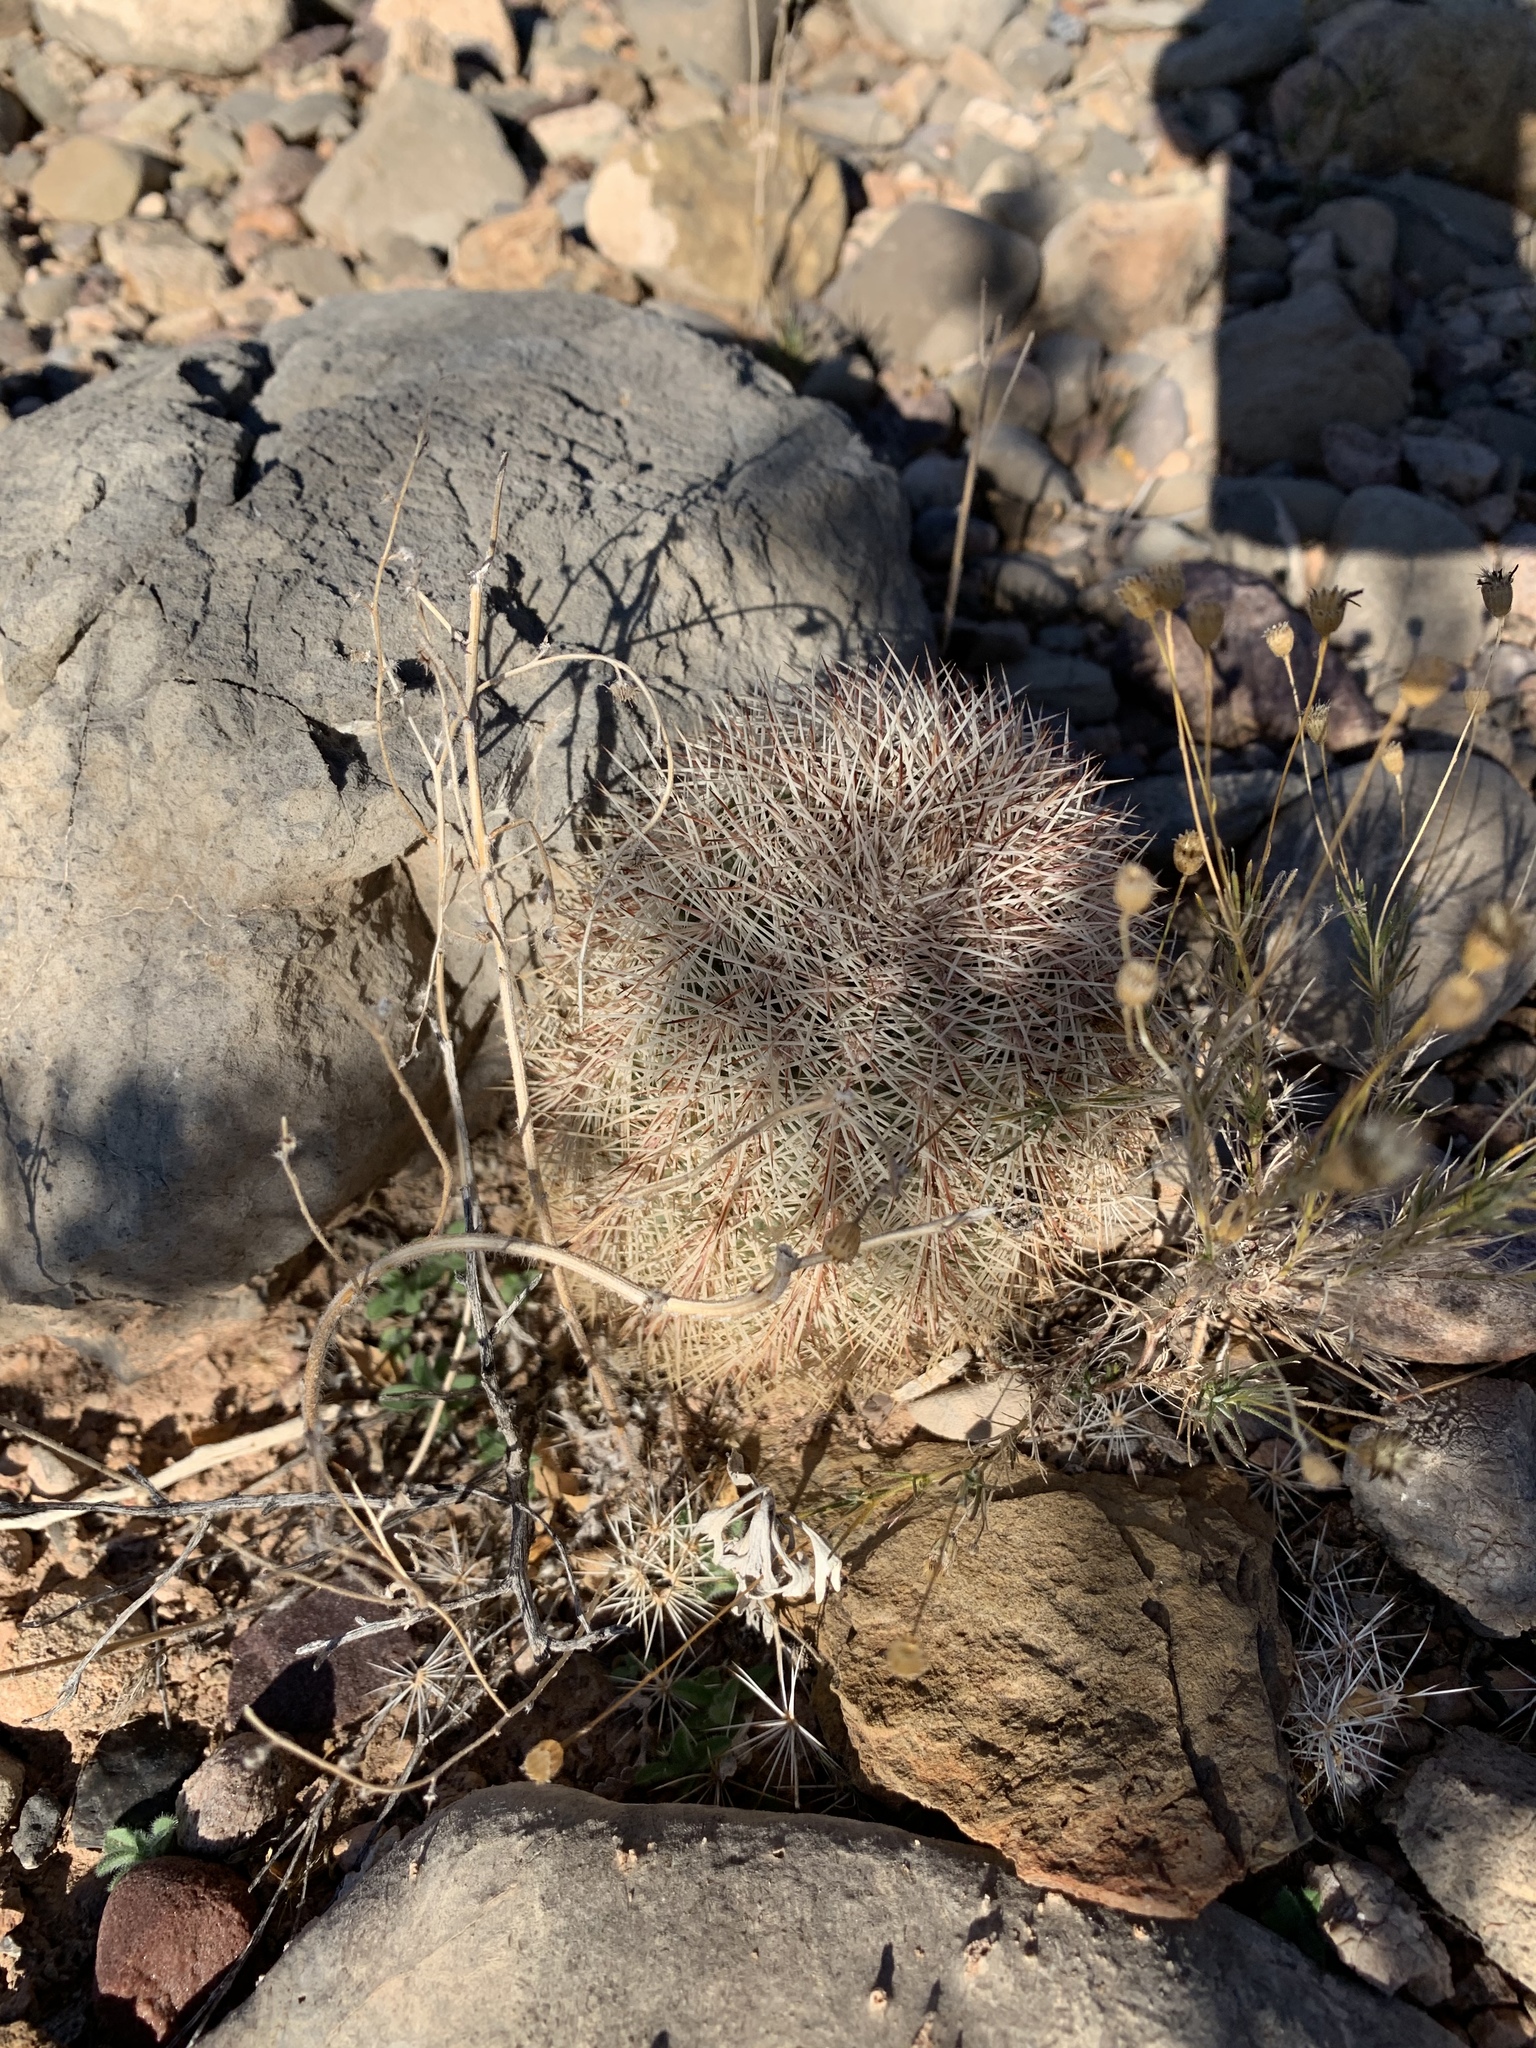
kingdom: Plantae
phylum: Tracheophyta
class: Magnoliopsida
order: Caryophyllales
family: Cactaceae
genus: Echinocereus
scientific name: Echinocereus dasyacanthus
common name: Spiny hedgehog cactus
